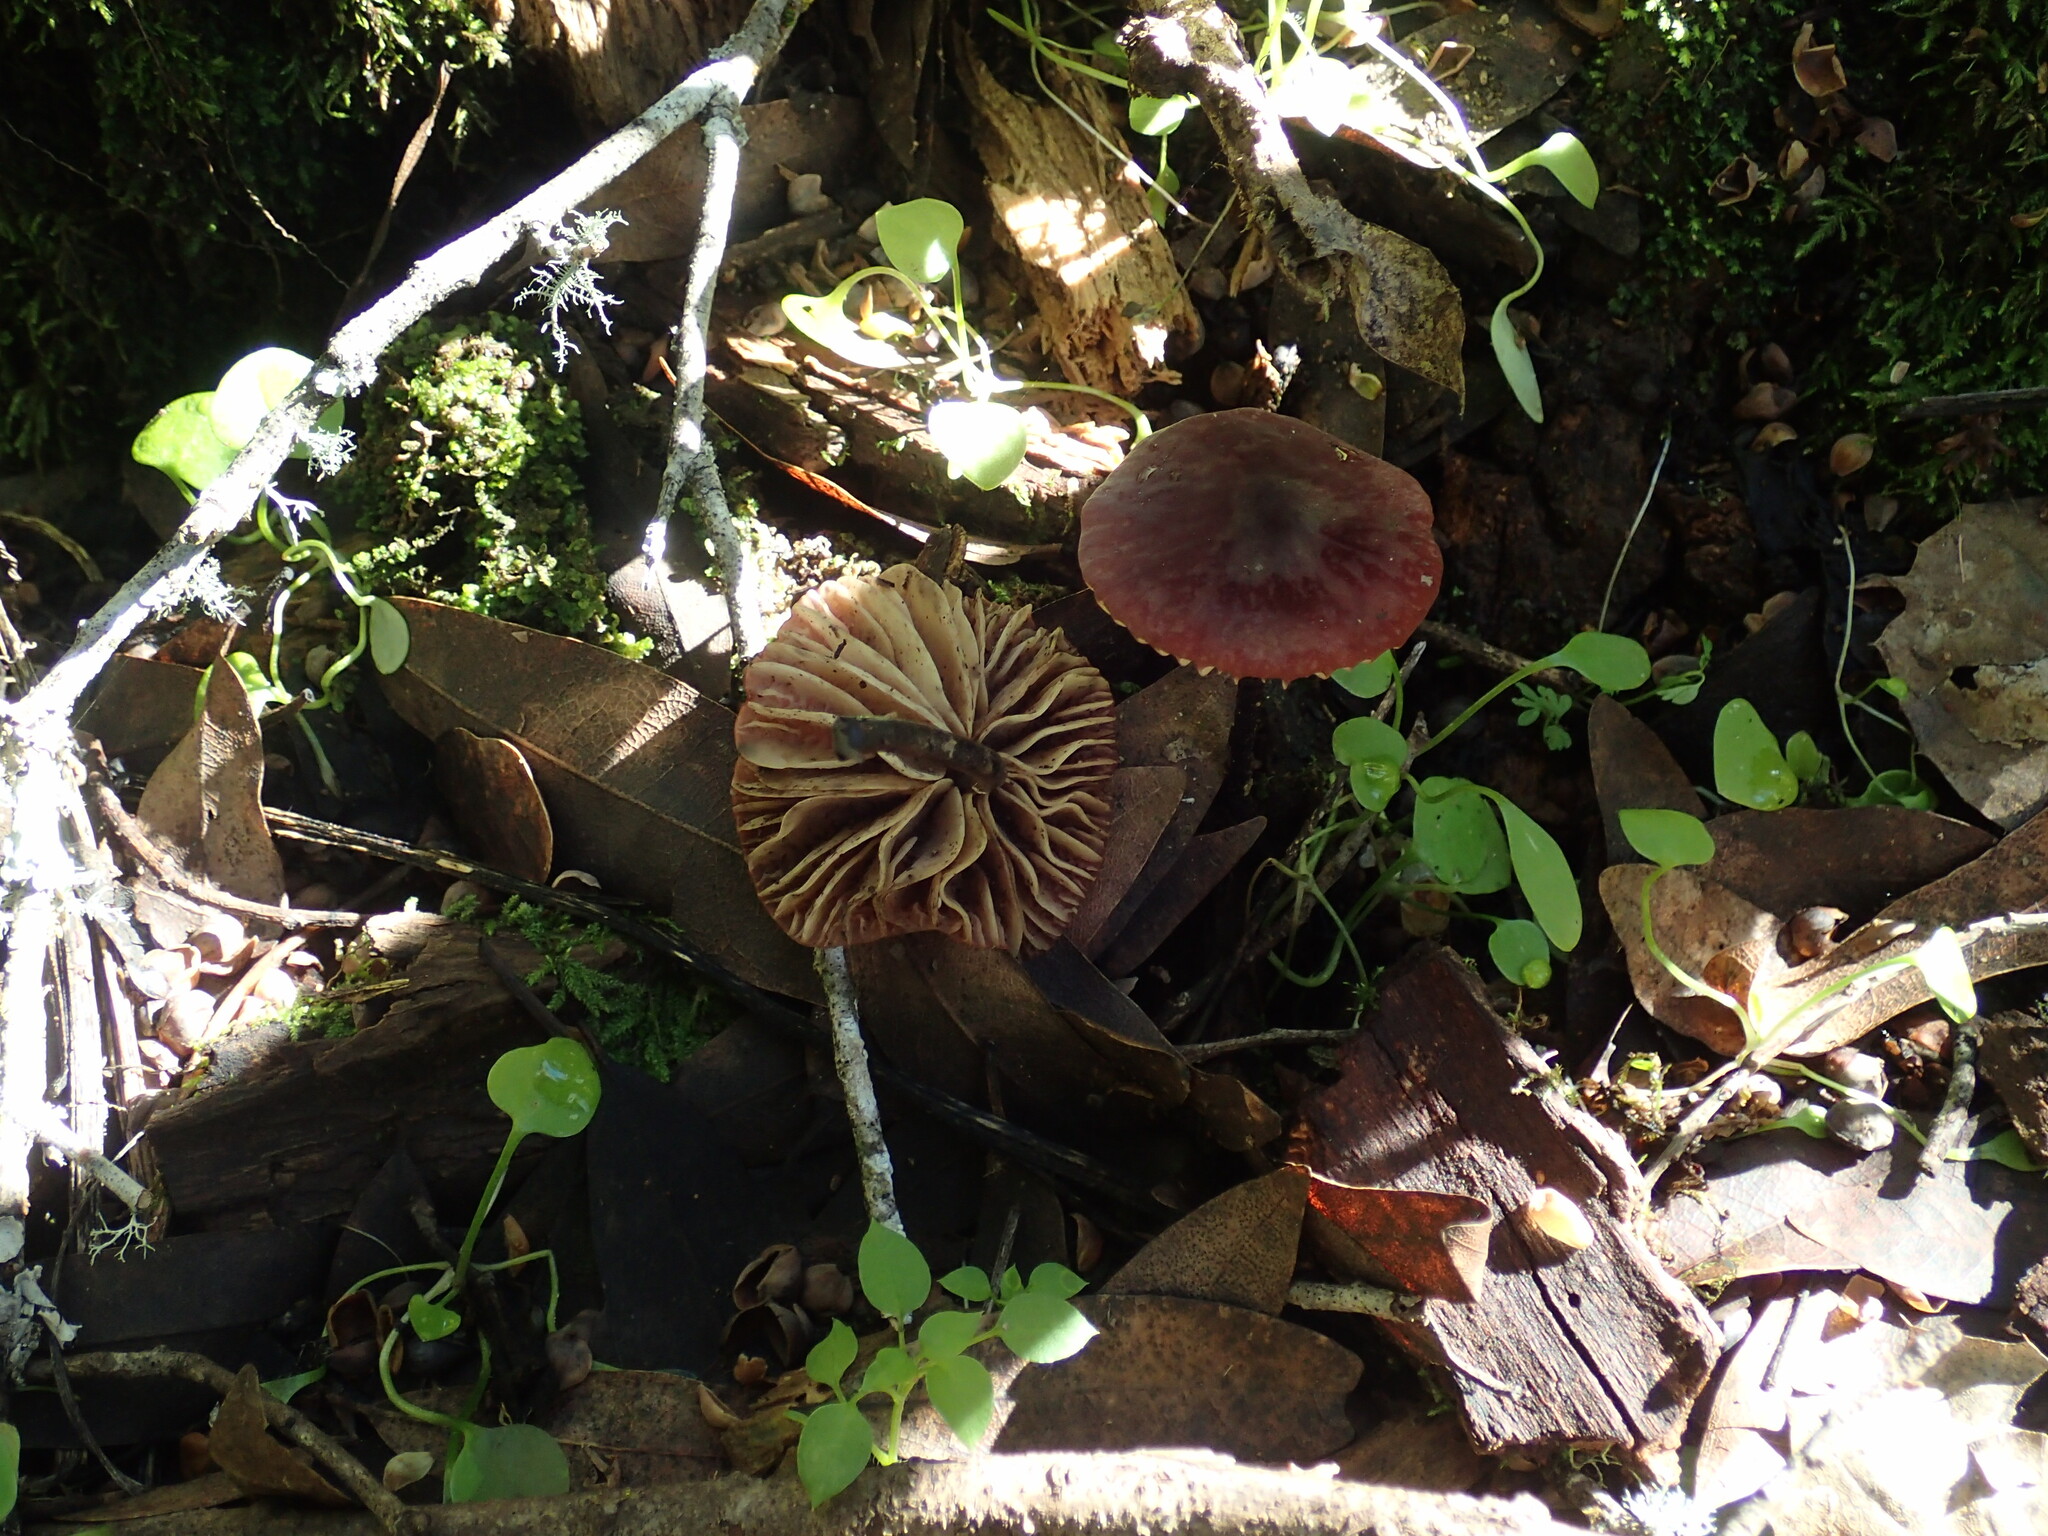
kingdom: Fungi
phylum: Basidiomycota
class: Agaricomycetes
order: Agaricales
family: Marasmiaceae
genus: Marasmius
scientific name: Marasmius plicatulus
